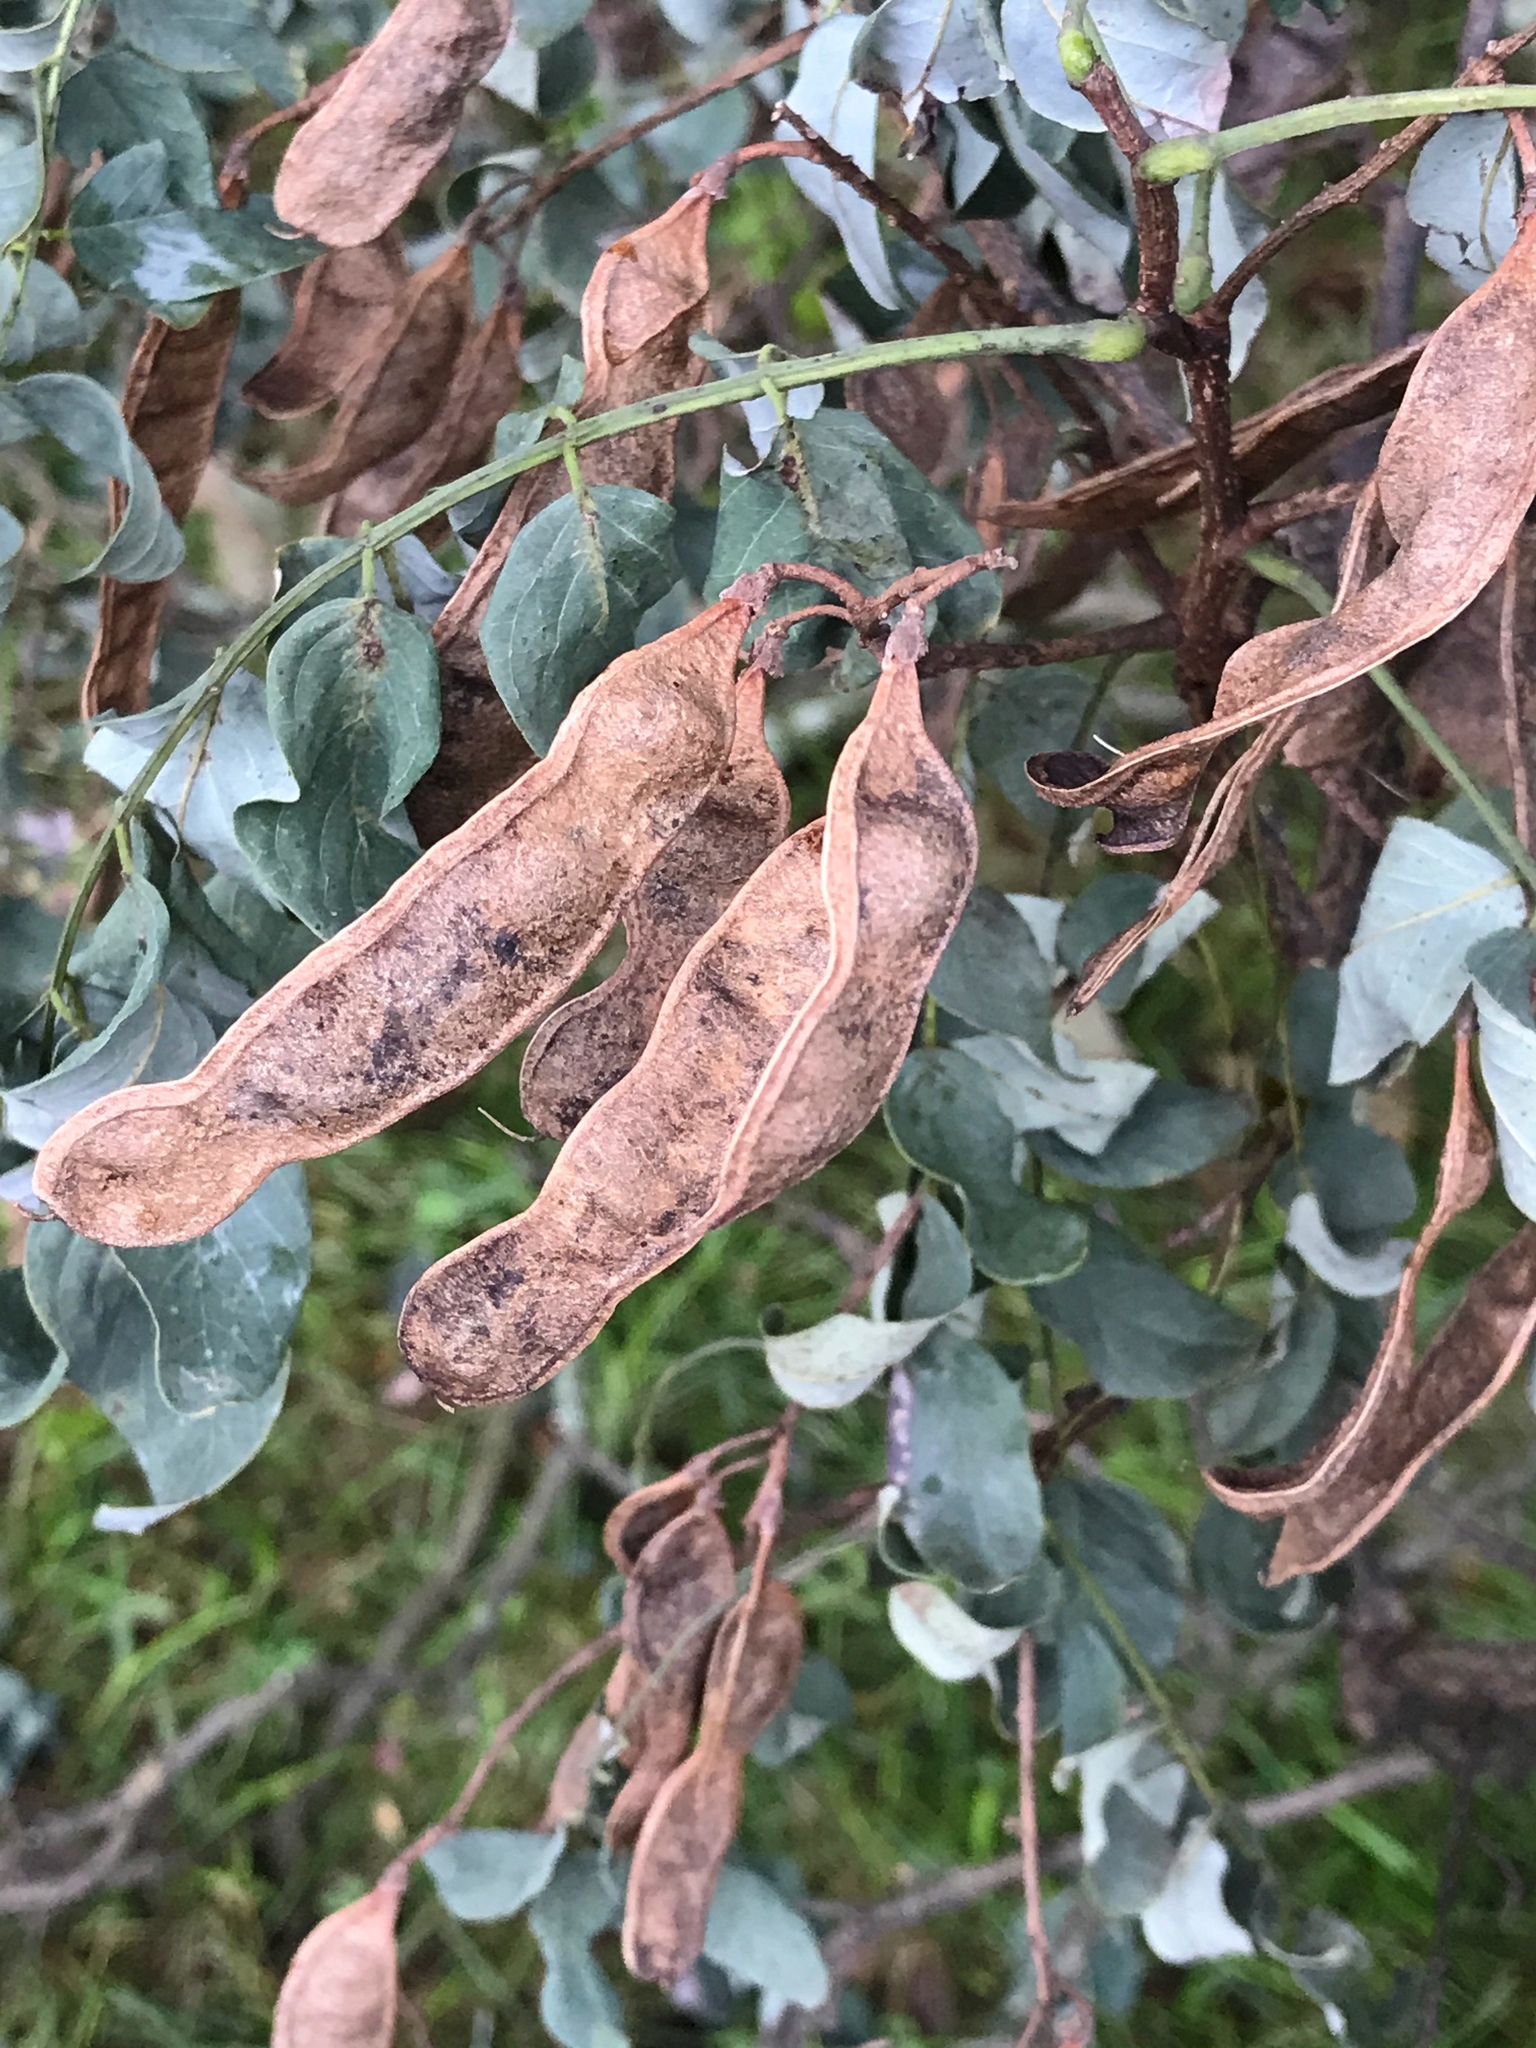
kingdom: Plantae
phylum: Tracheophyta
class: Magnoliopsida
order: Fabales
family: Fabaceae
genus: Robinia
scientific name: Robinia pseudoacacia
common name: Black locust
